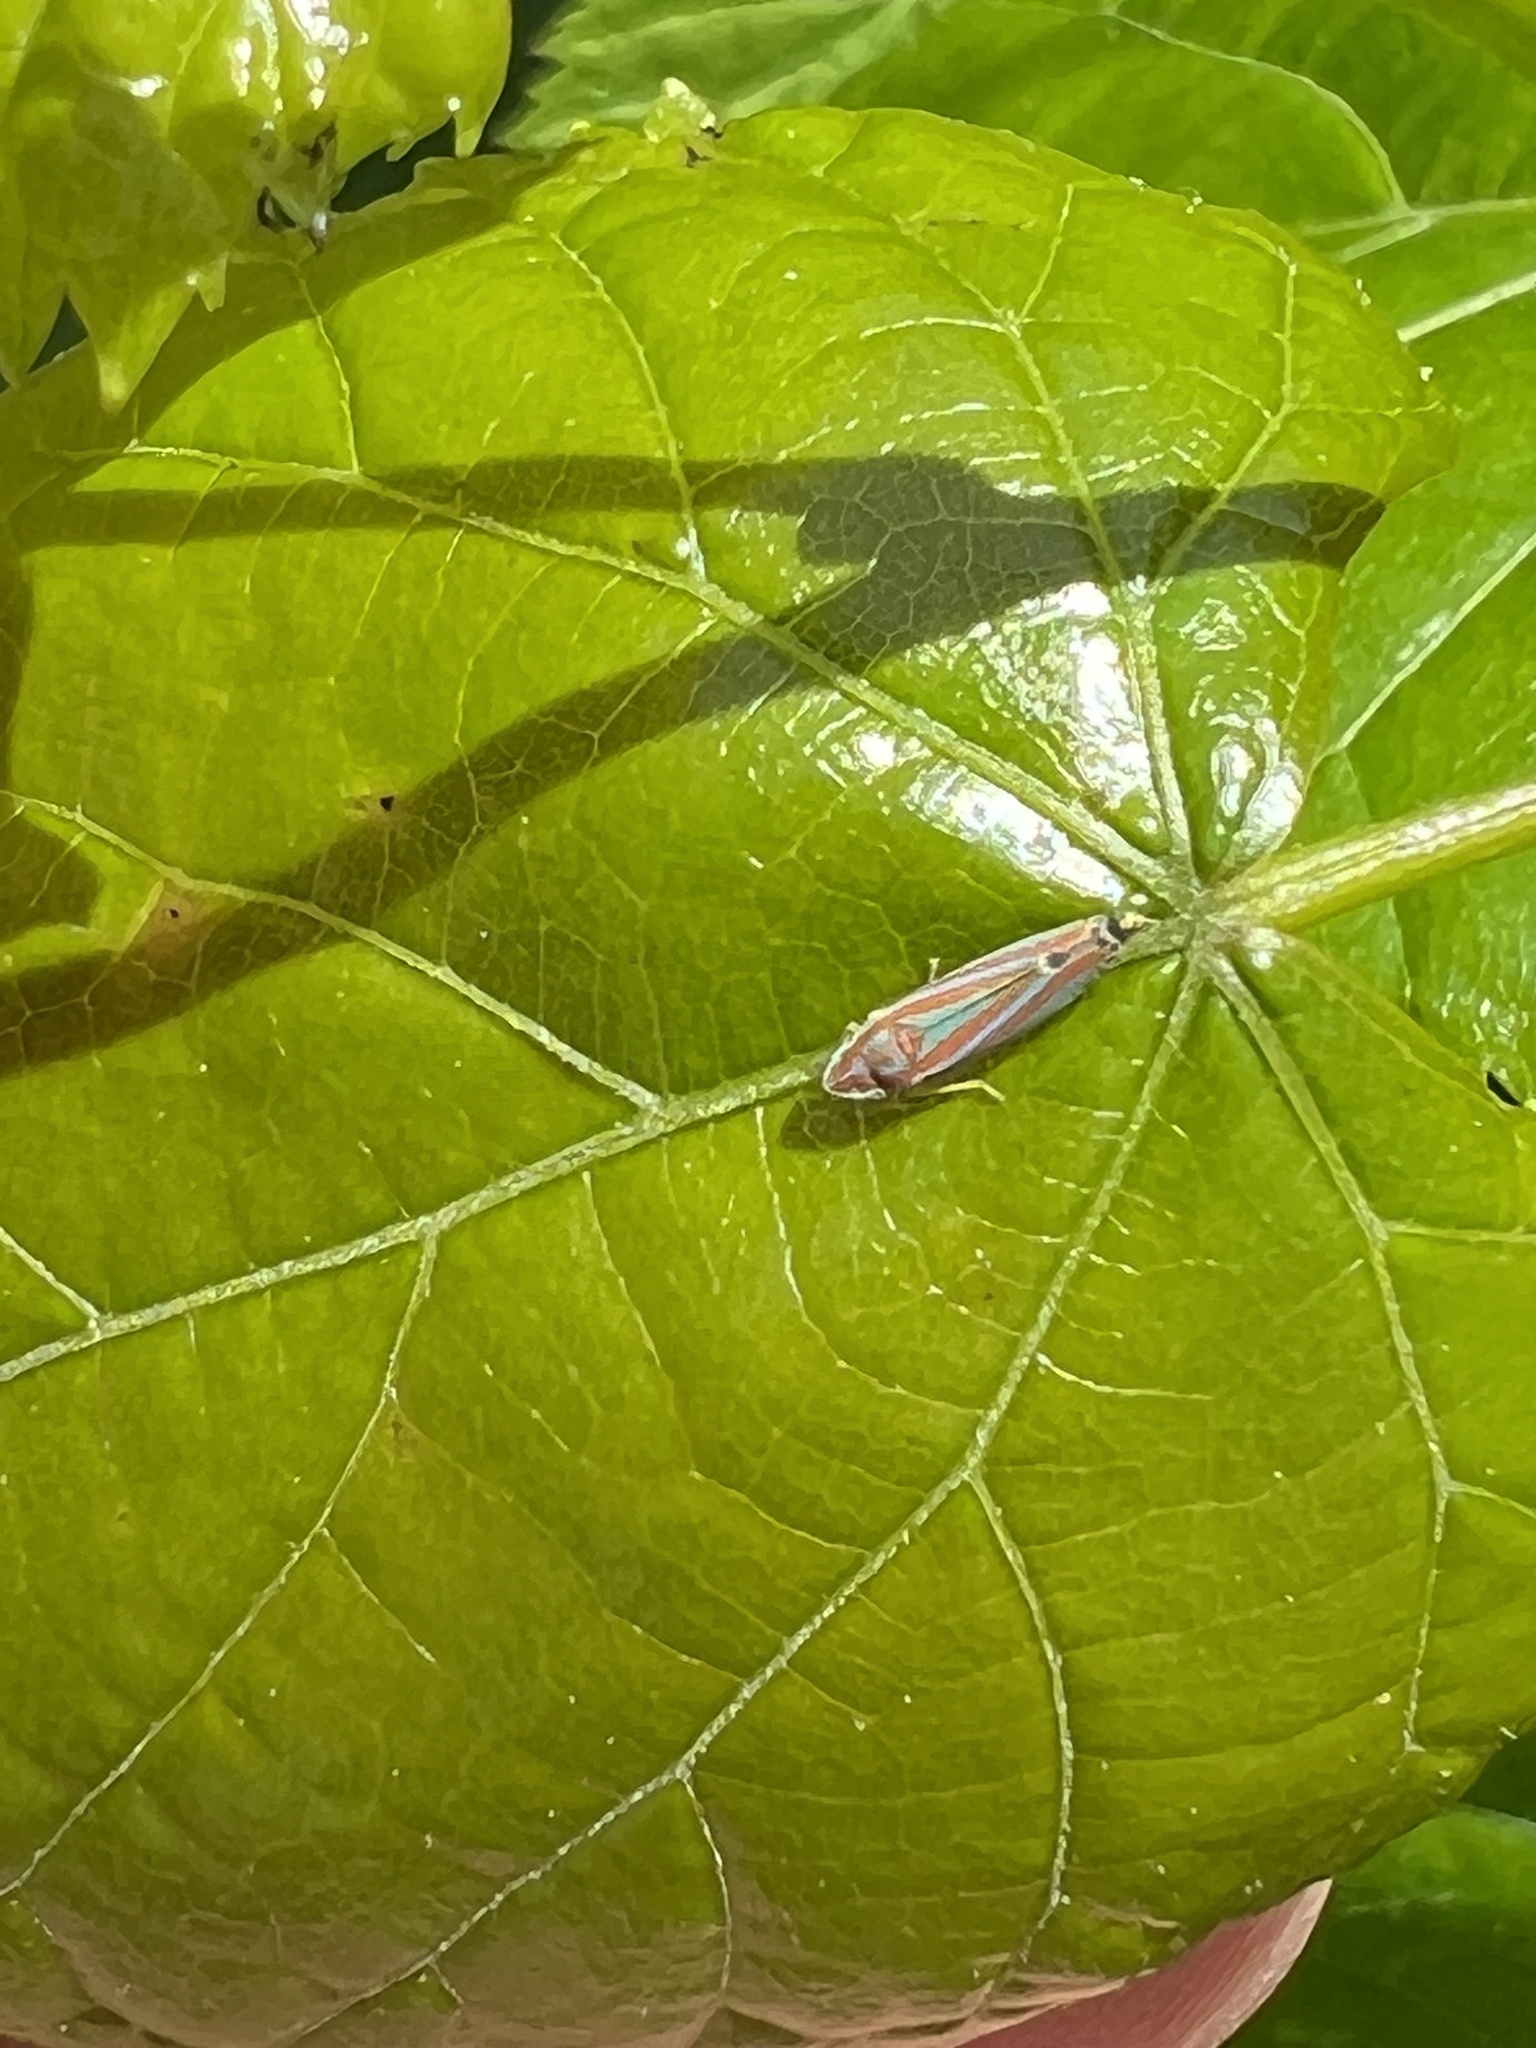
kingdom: Animalia
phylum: Arthropoda
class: Insecta
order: Hemiptera
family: Cicadellidae
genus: Graphocephala
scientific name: Graphocephala versuta
